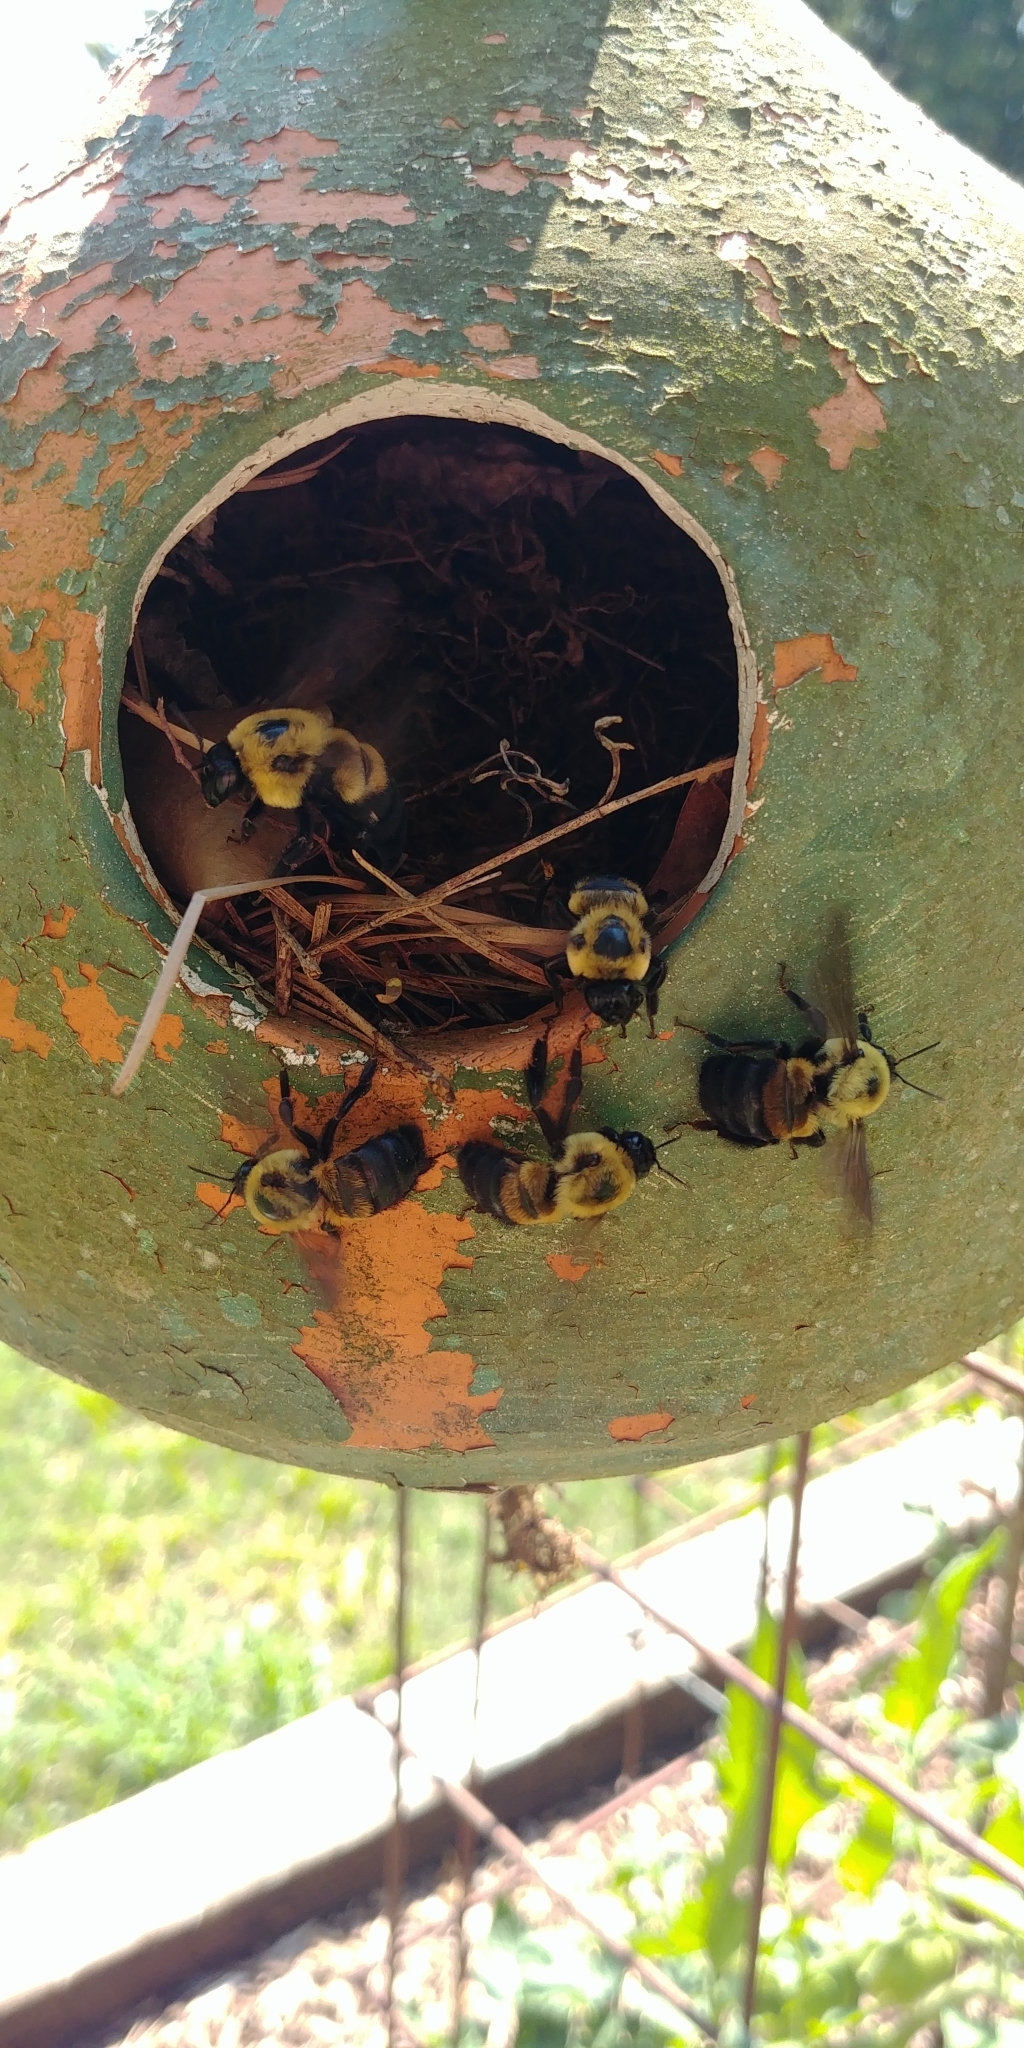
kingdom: Animalia
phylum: Arthropoda
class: Insecta
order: Hymenoptera
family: Apidae
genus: Bombus
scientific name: Bombus griseocollis
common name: Brown-belted bumble bee
